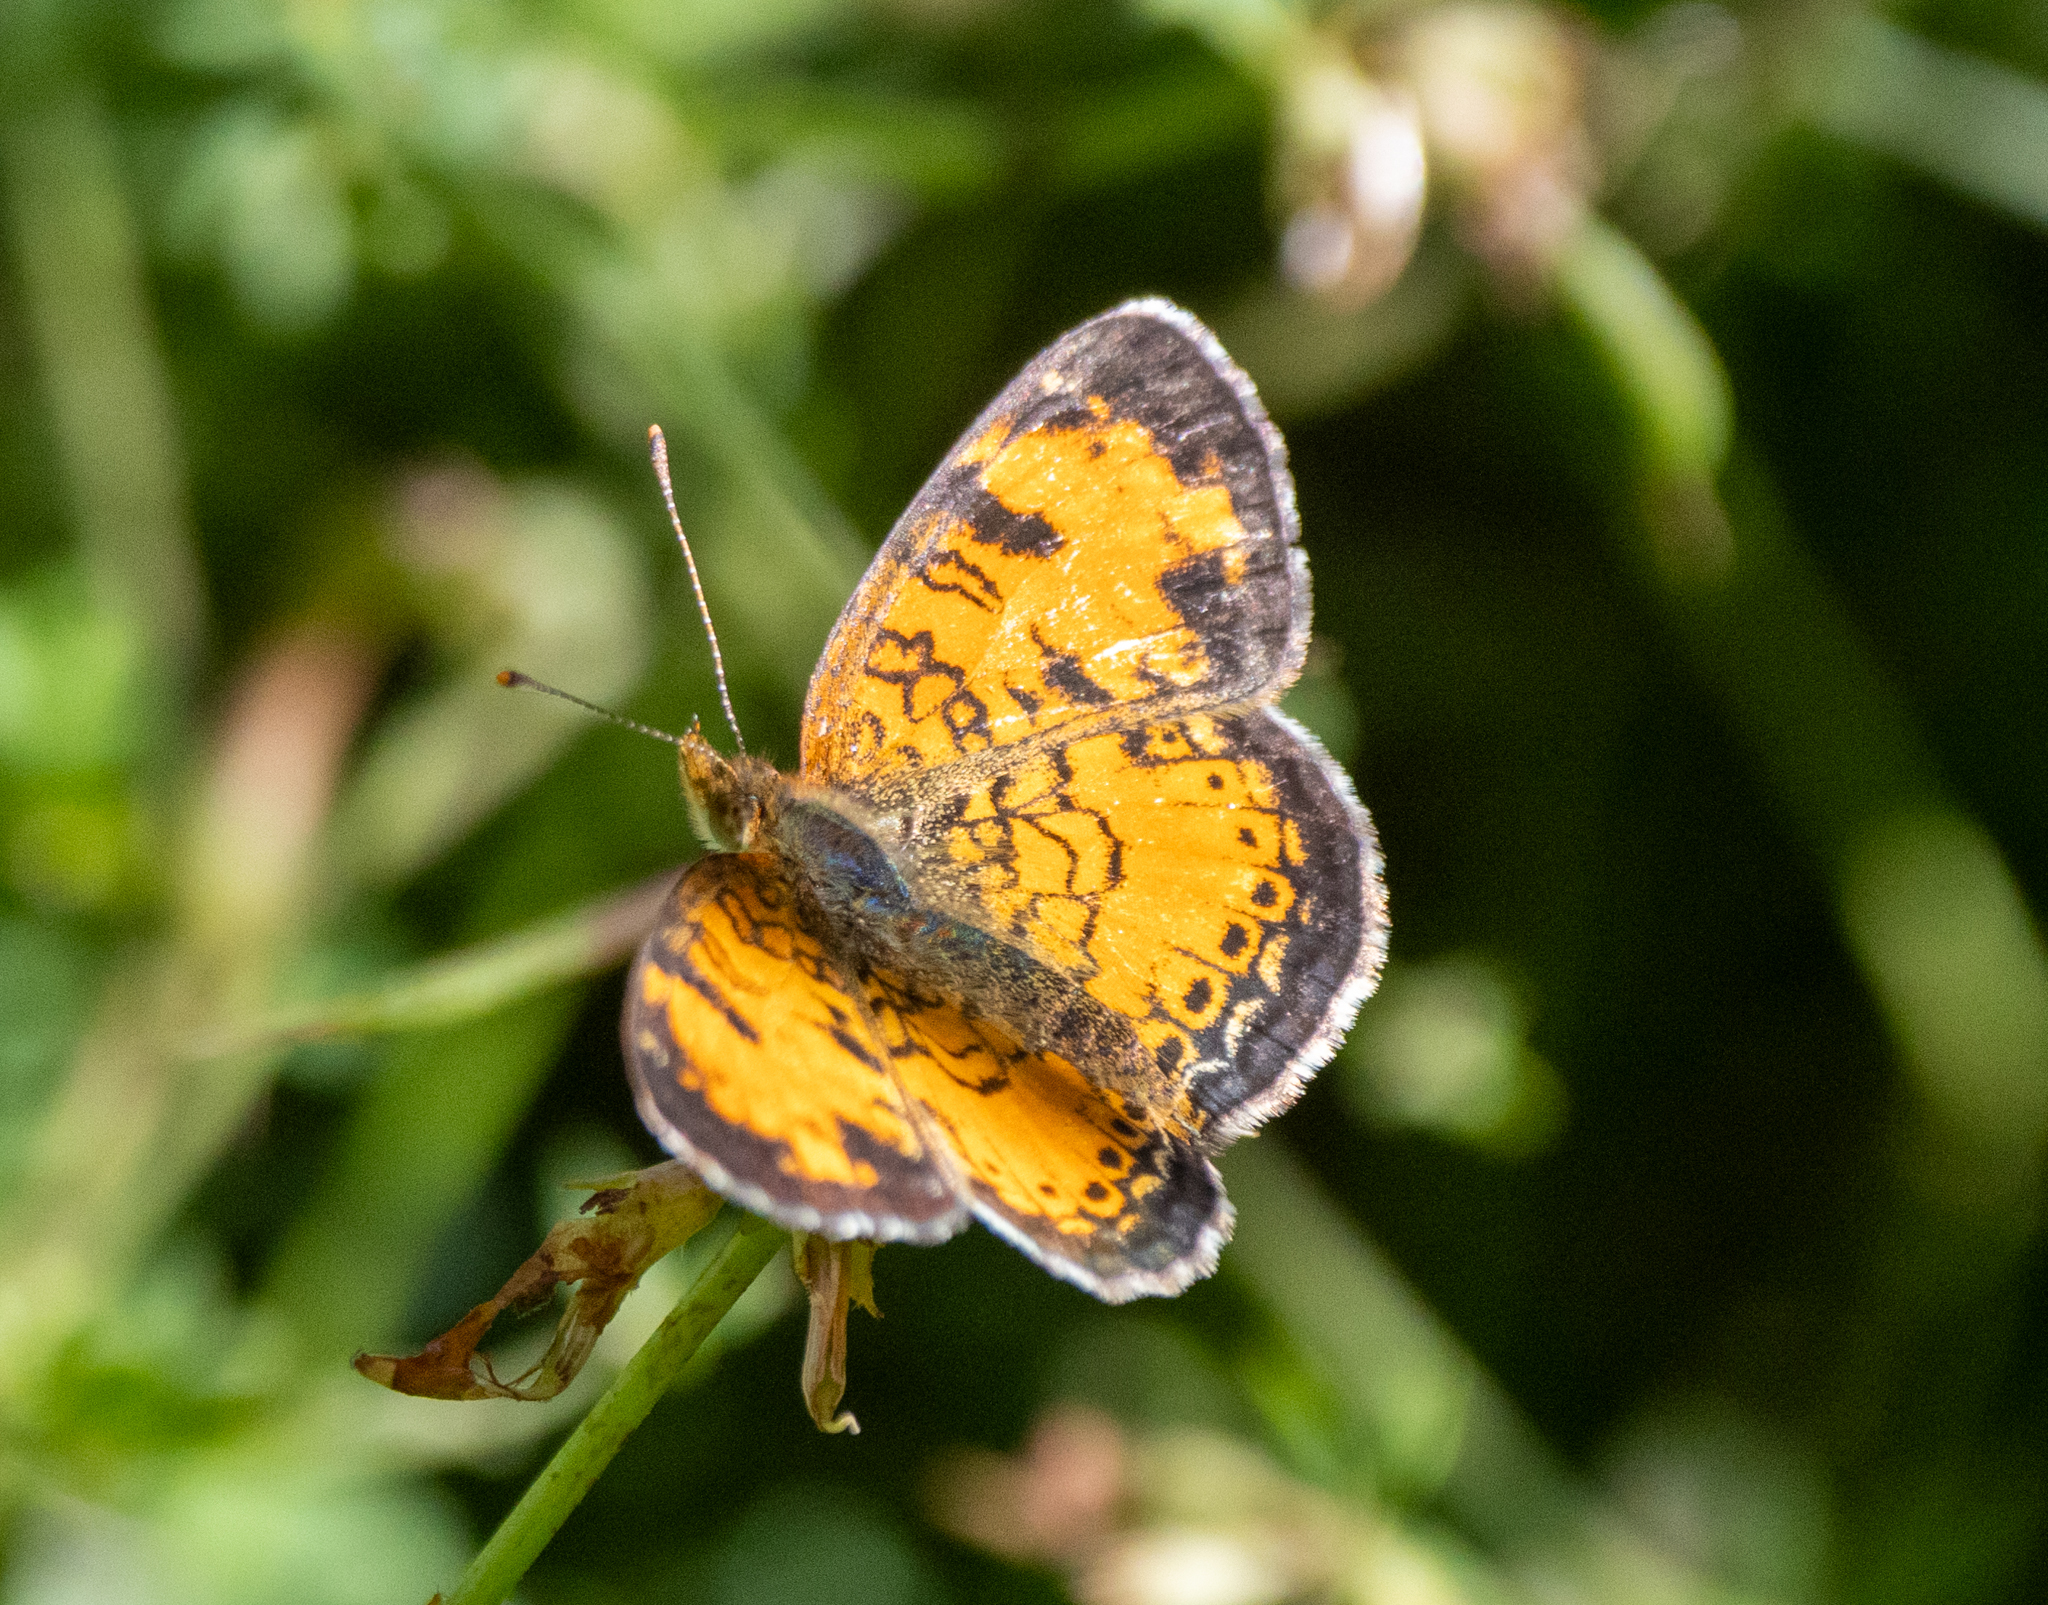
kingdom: Animalia
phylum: Arthropoda
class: Insecta
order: Lepidoptera
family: Nymphalidae
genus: Phyciodes
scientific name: Phyciodes tharos
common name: Pearl crescent
